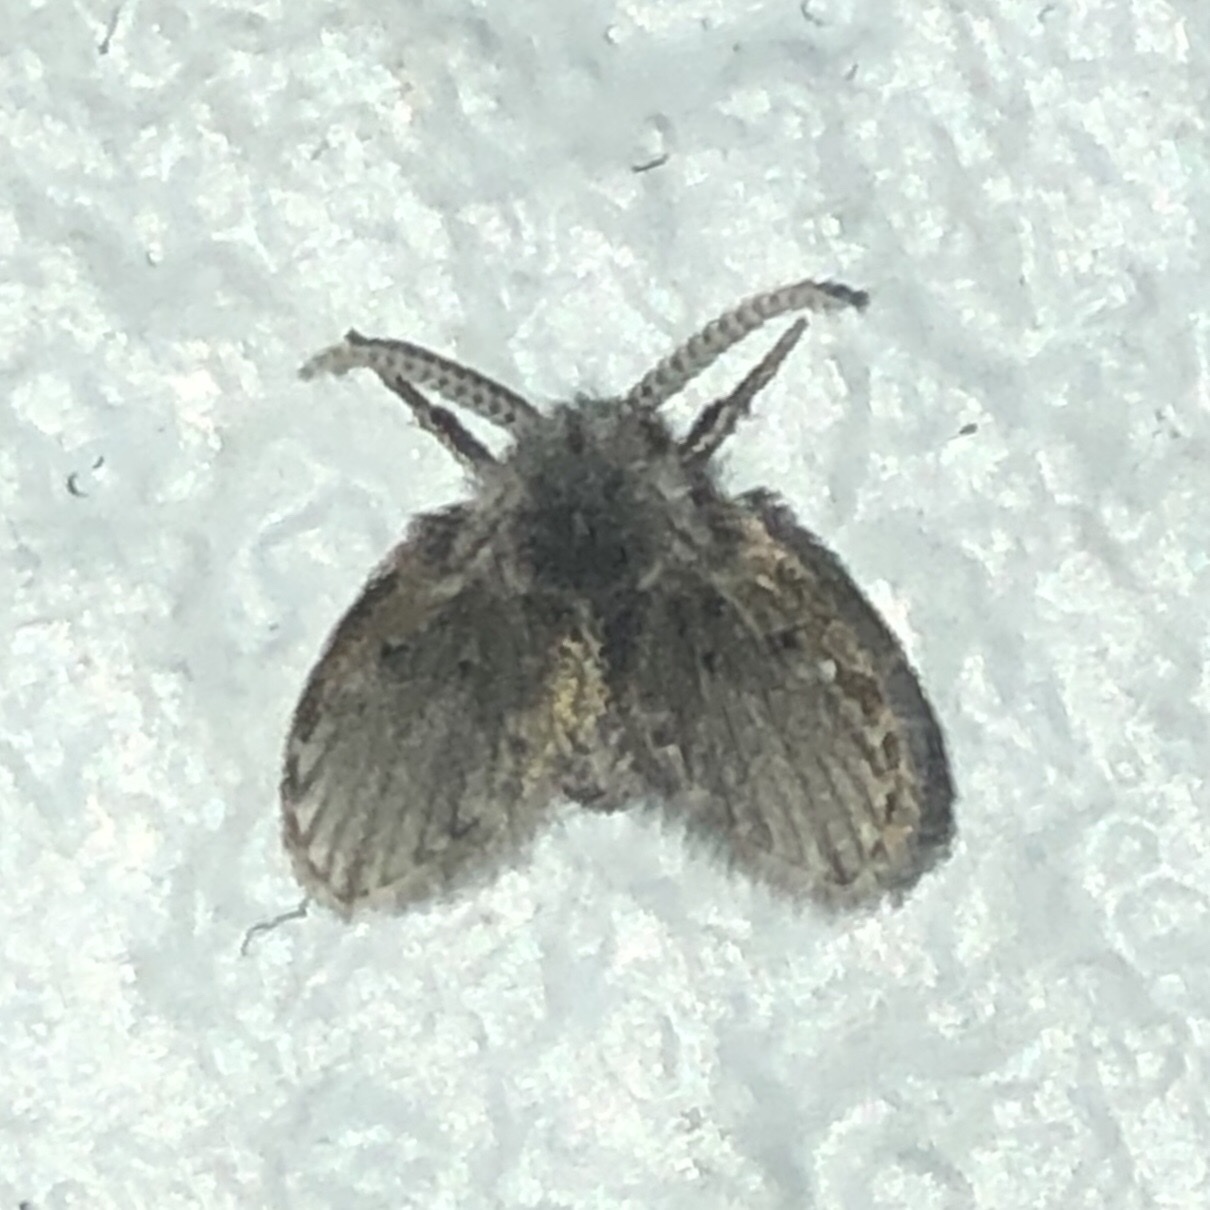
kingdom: Animalia
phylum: Arthropoda
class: Insecta
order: Diptera
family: Psychodidae
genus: Clogmia
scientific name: Clogmia albipunctatus
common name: White-spotted moth fly
